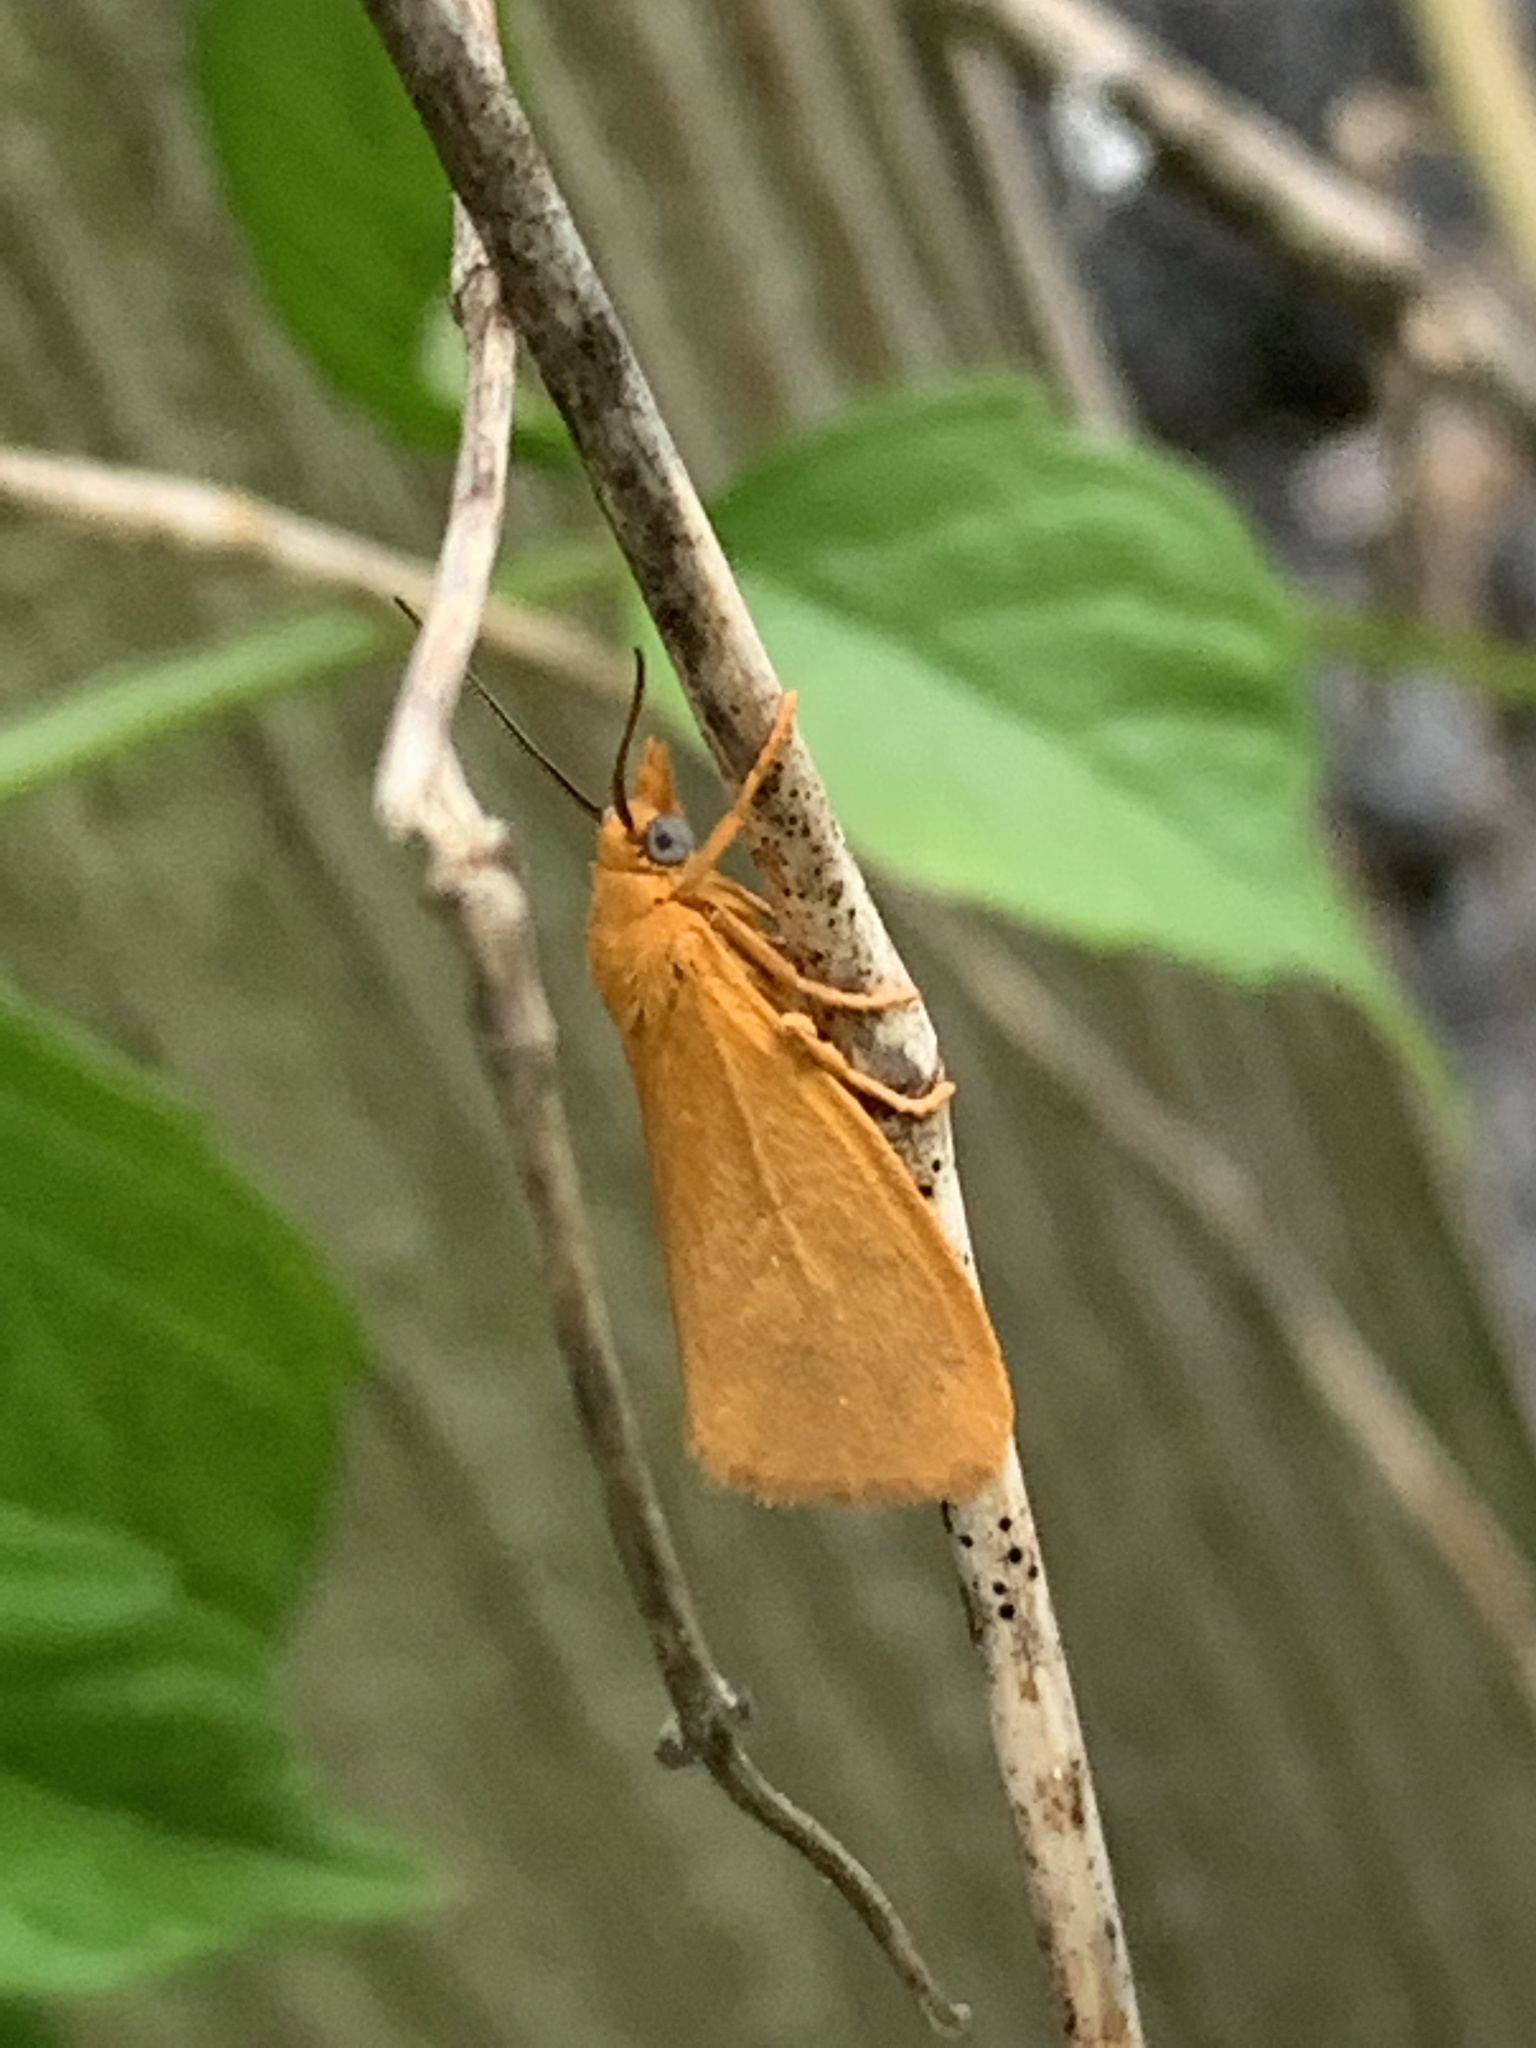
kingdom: Animalia
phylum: Arthropoda
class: Insecta
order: Lepidoptera
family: Erebidae
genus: Virbia
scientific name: Virbia aurantiaca
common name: Orange virbia moth
